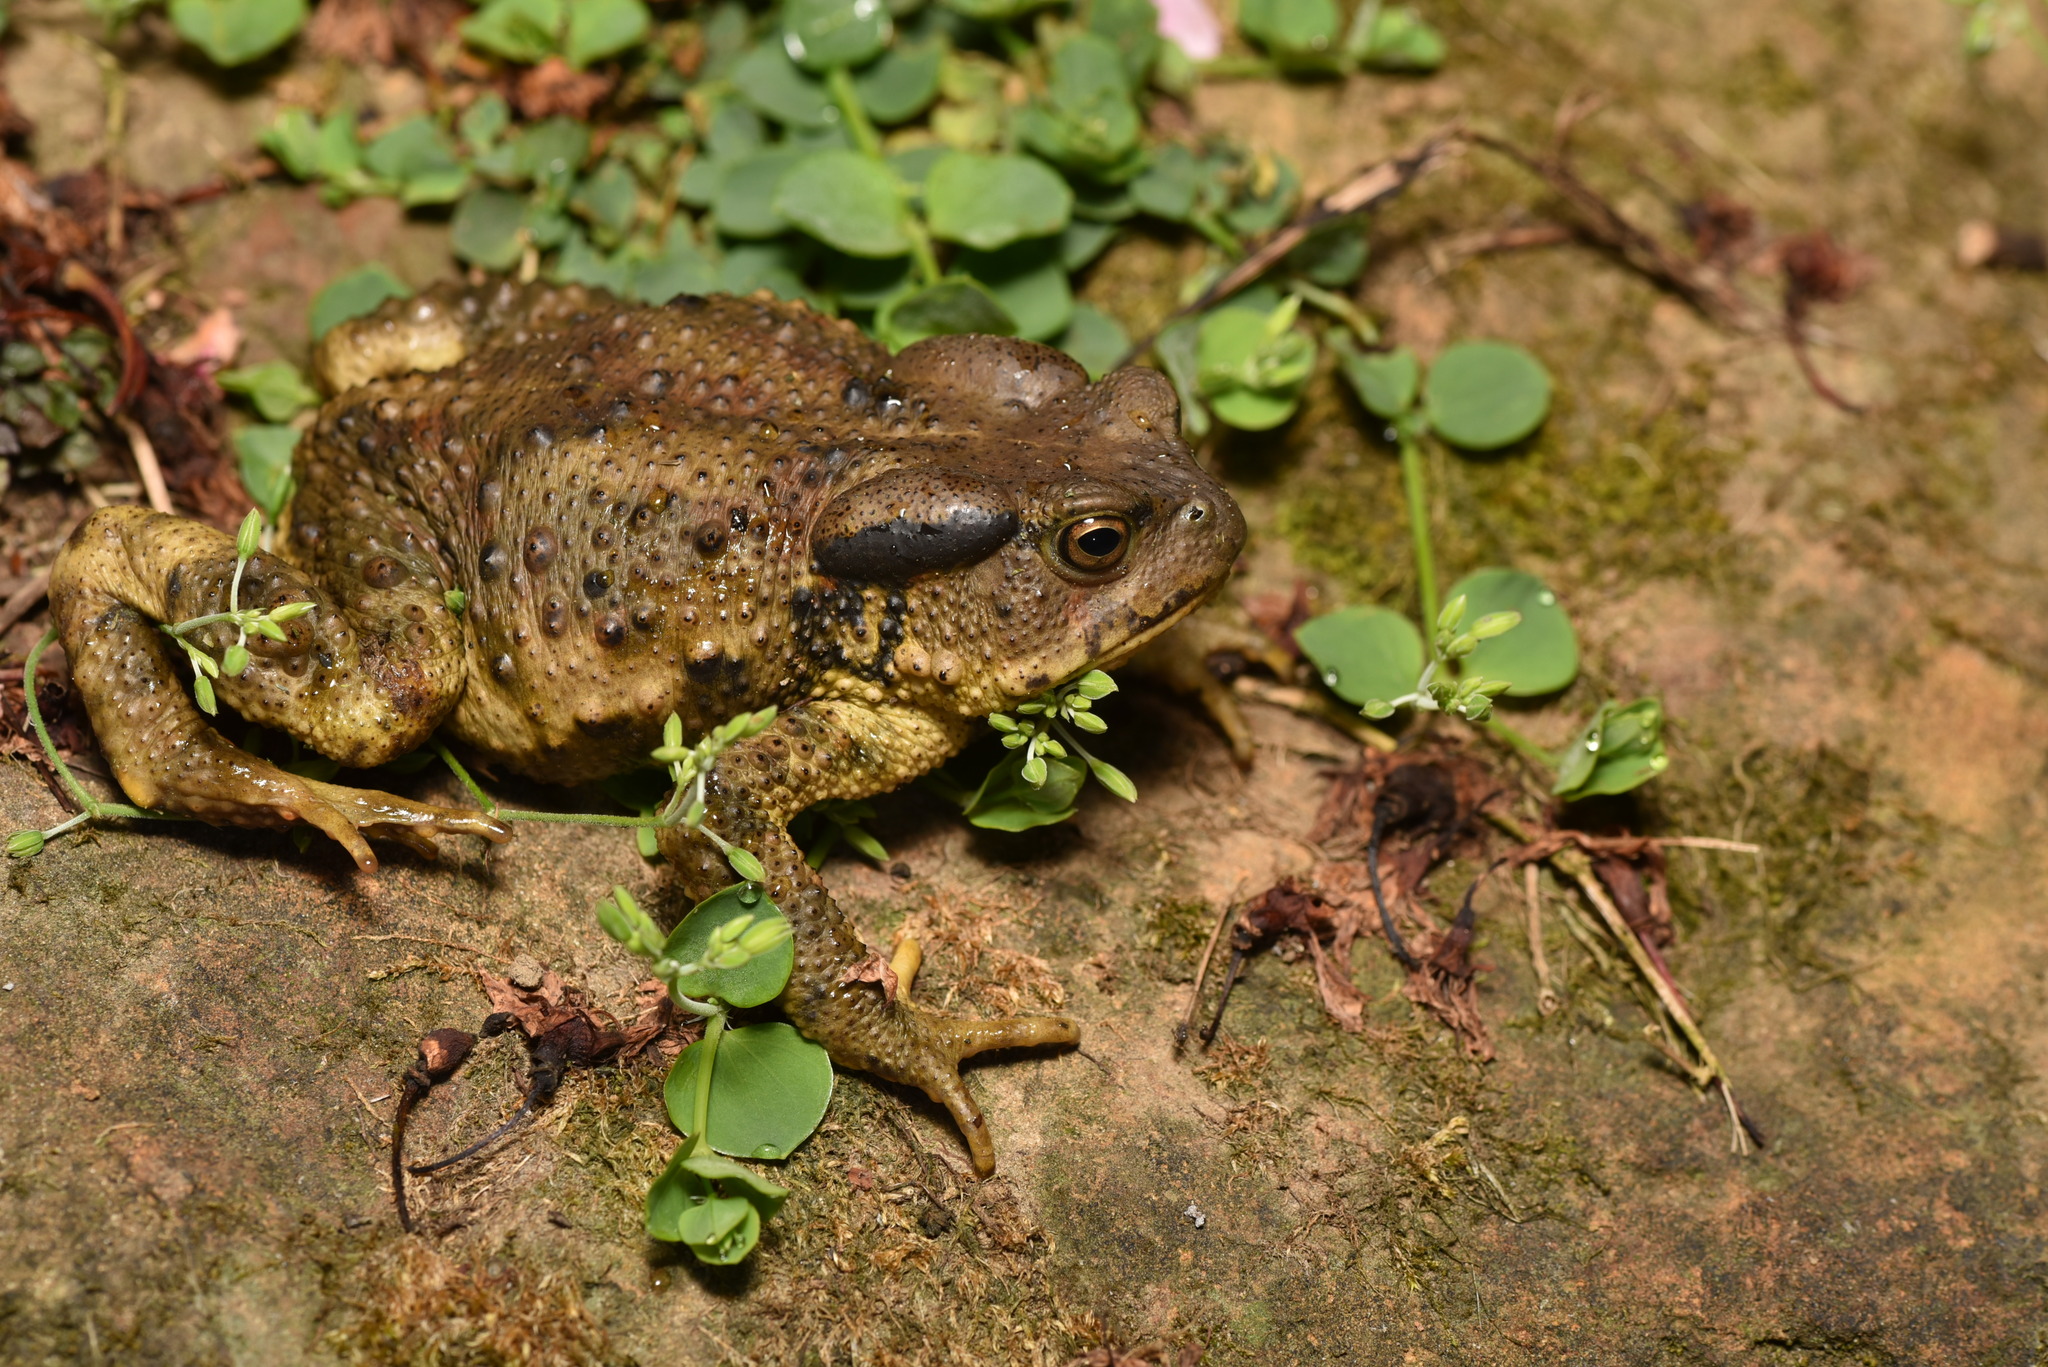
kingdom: Animalia
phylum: Chordata
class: Amphibia
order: Anura
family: Bufonidae
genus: Bufo
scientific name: Bufo bankorensis
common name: Bankor toad
